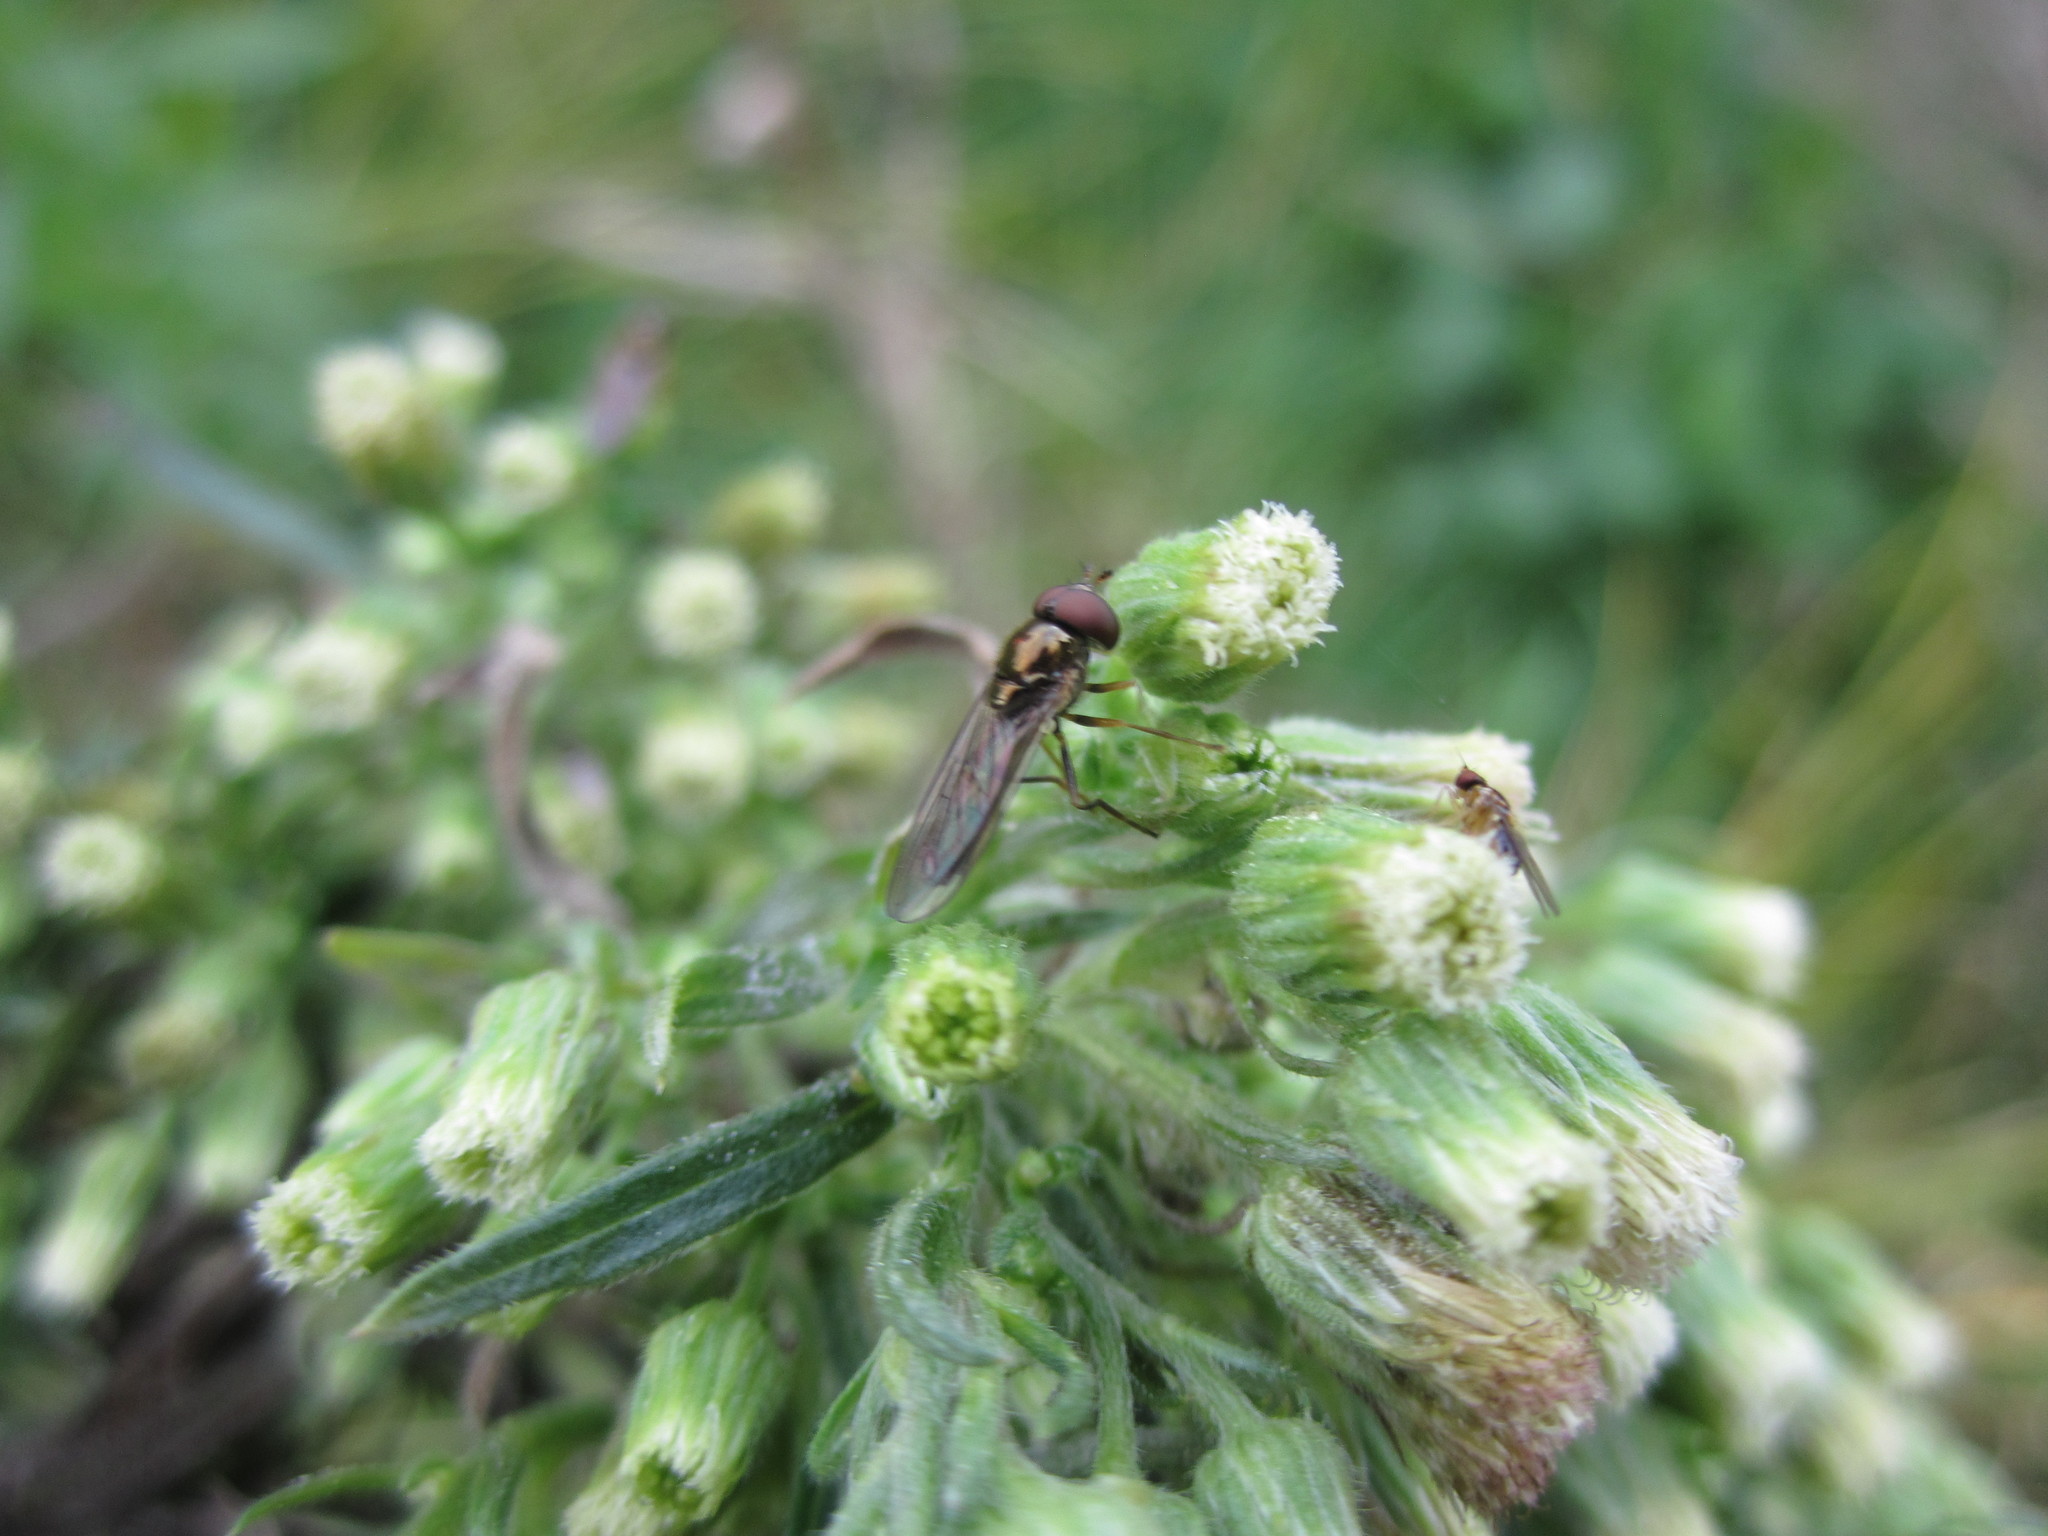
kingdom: Animalia
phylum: Arthropoda
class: Insecta
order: Diptera
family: Syrphidae
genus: Melanostoma
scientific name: Melanostoma fasciatum
